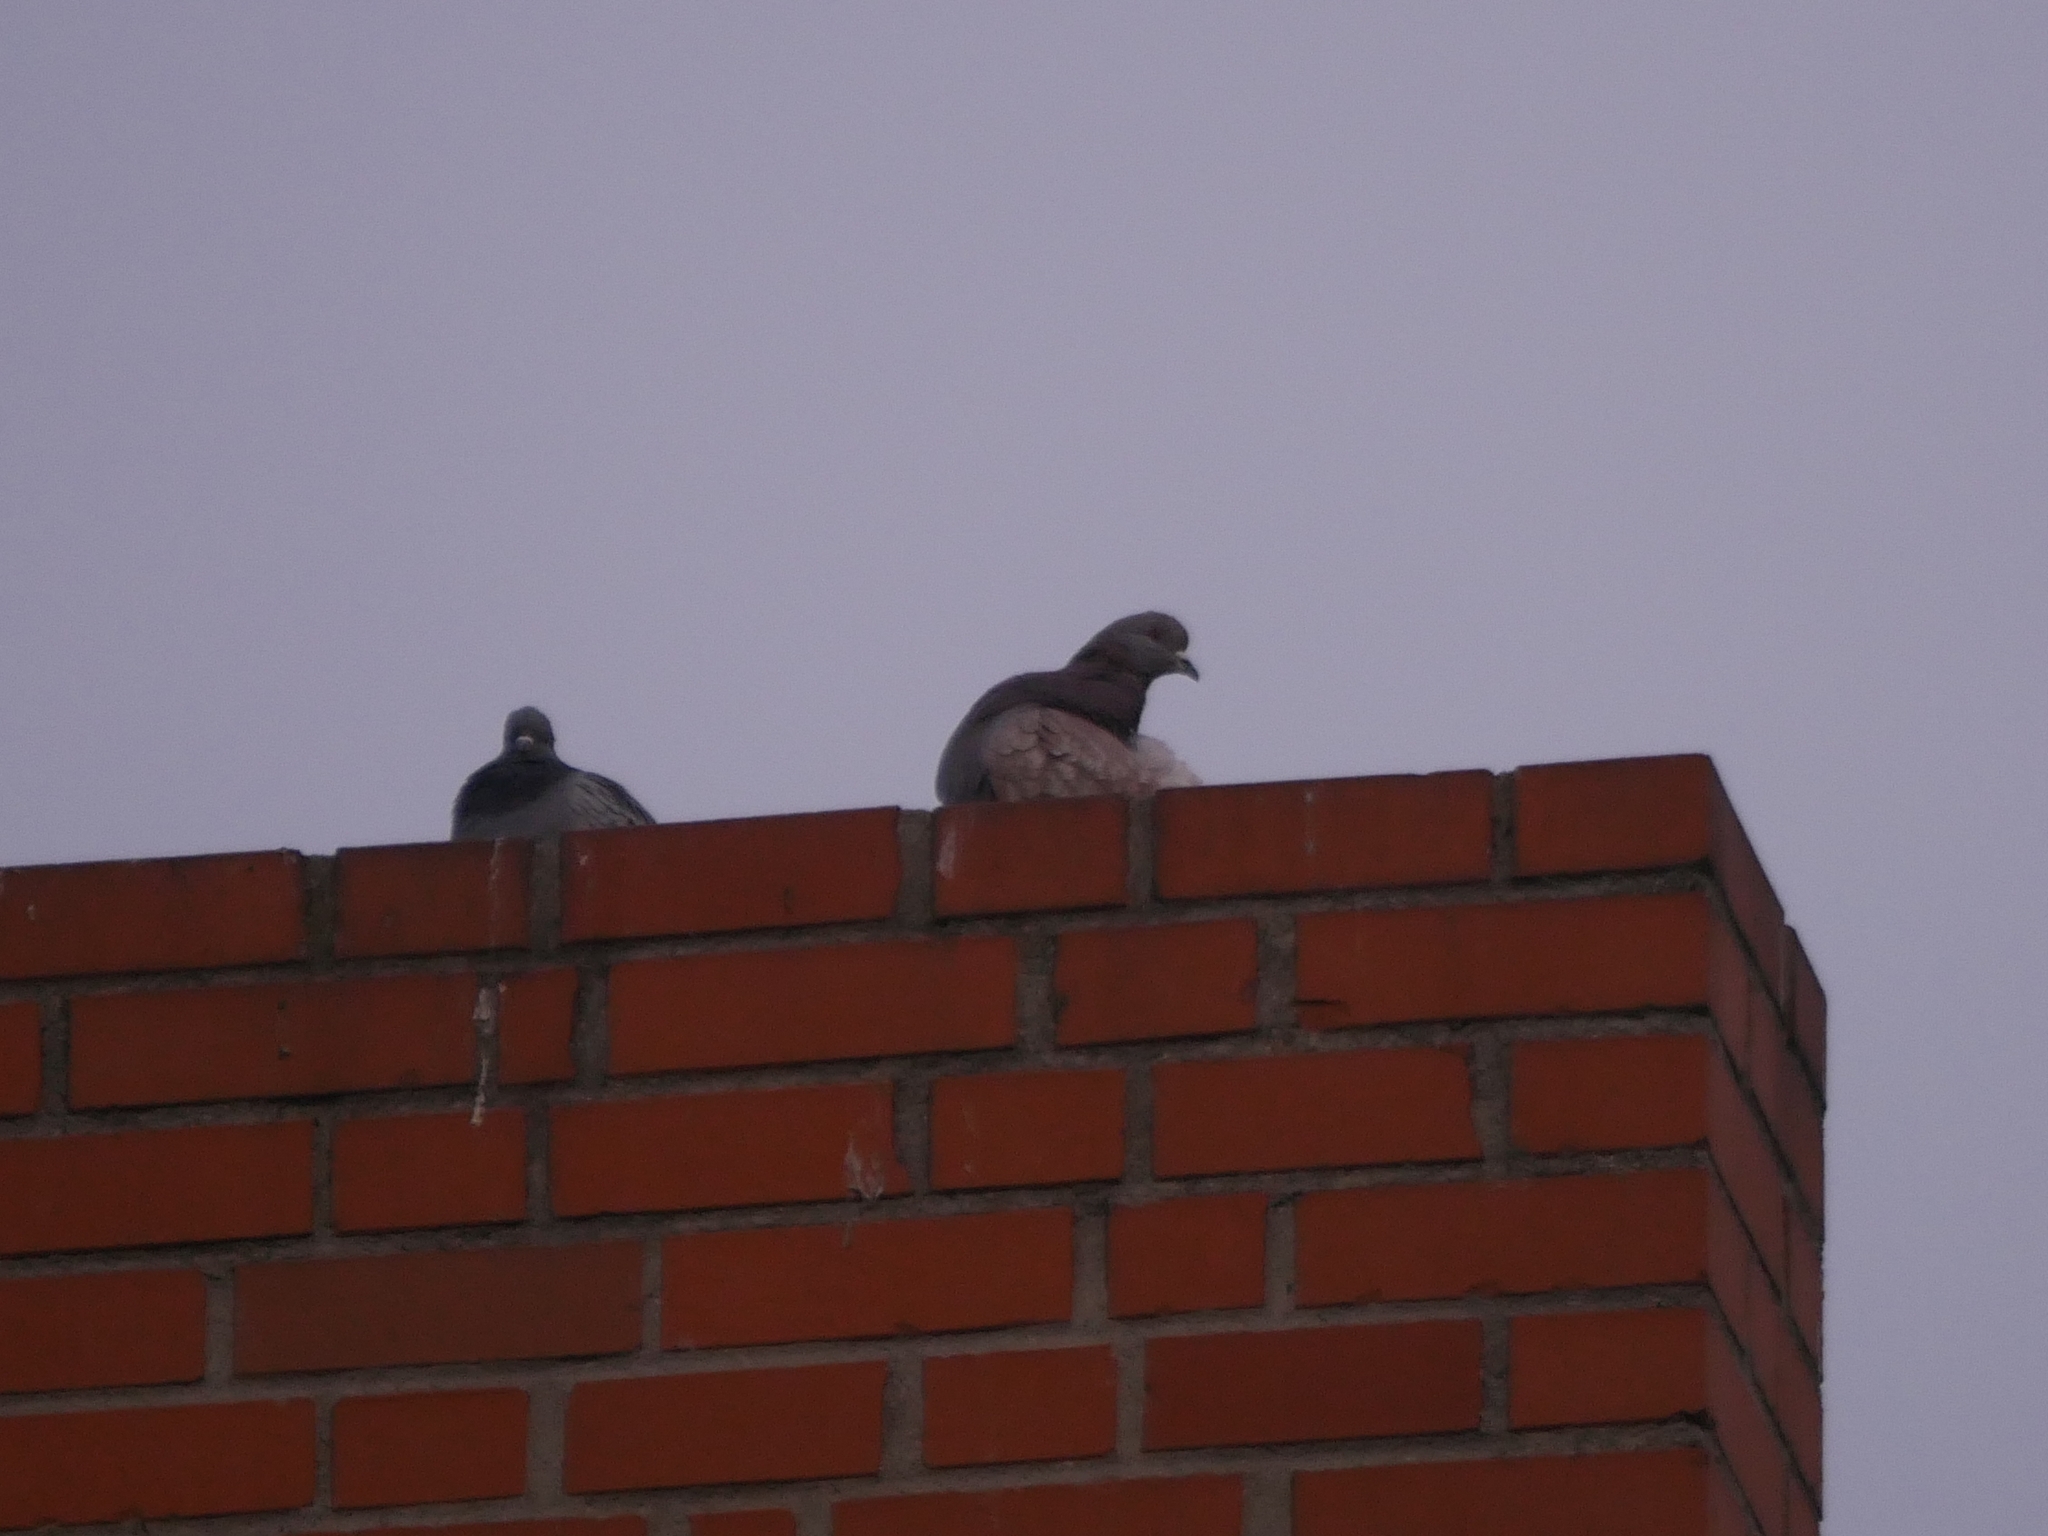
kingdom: Animalia
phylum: Chordata
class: Aves
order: Columbiformes
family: Columbidae
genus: Columba
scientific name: Columba livia
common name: Rock pigeon
